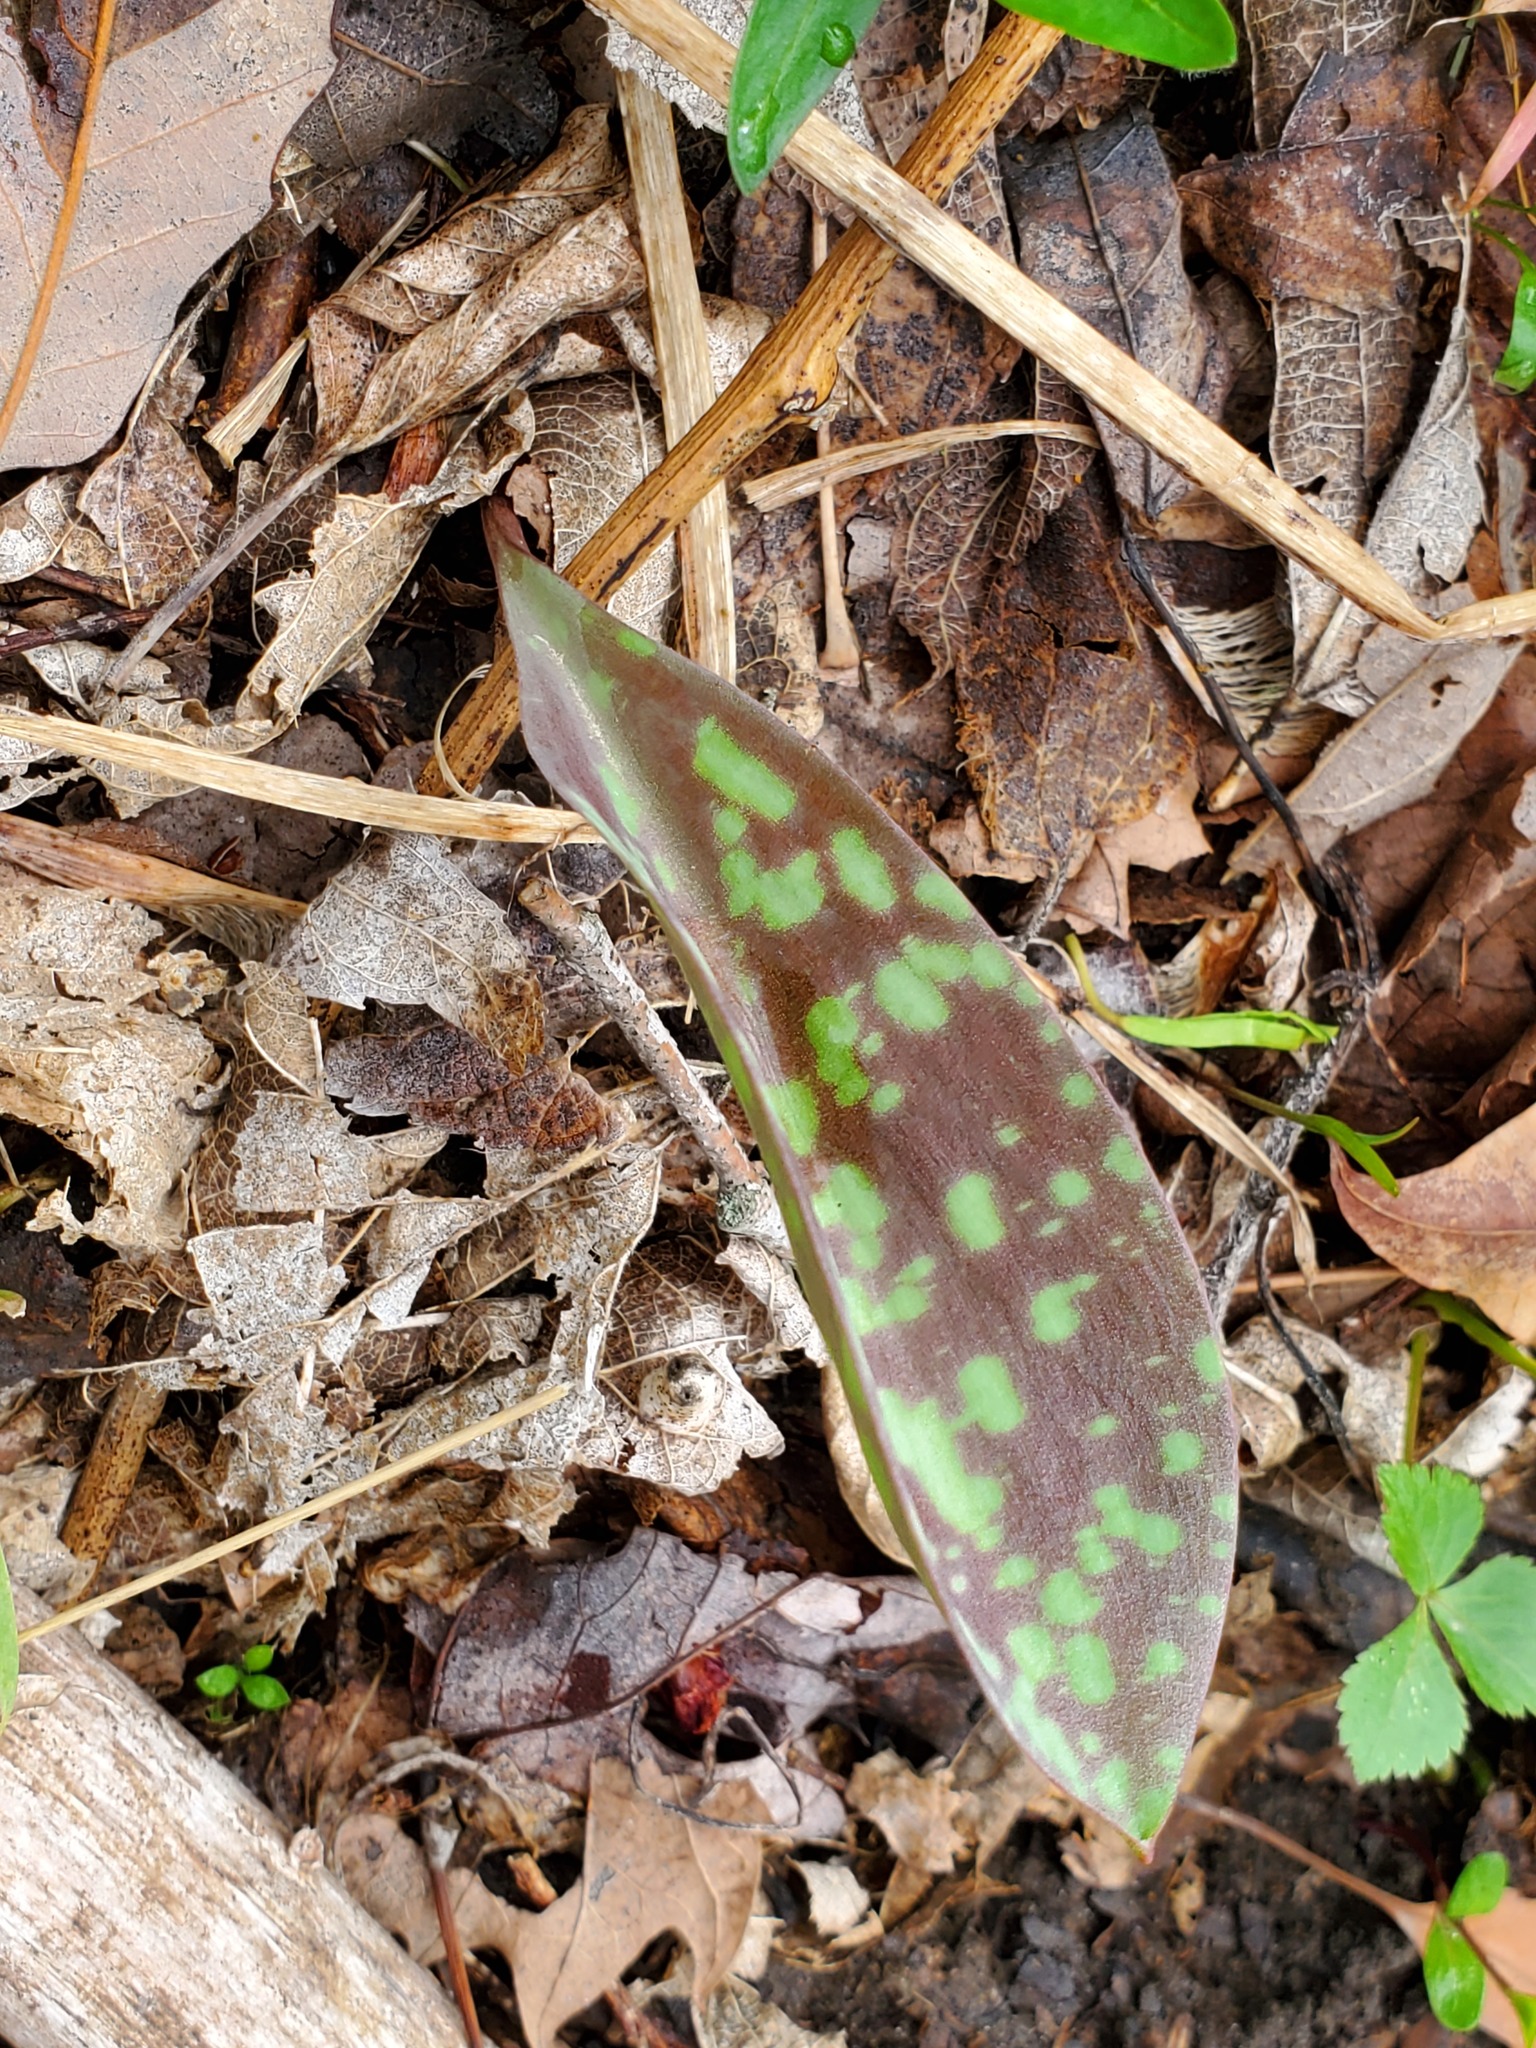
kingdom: Plantae
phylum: Tracheophyta
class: Liliopsida
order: Liliales
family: Liliaceae
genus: Erythronium
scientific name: Erythronium albidum
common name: White trout-lily
